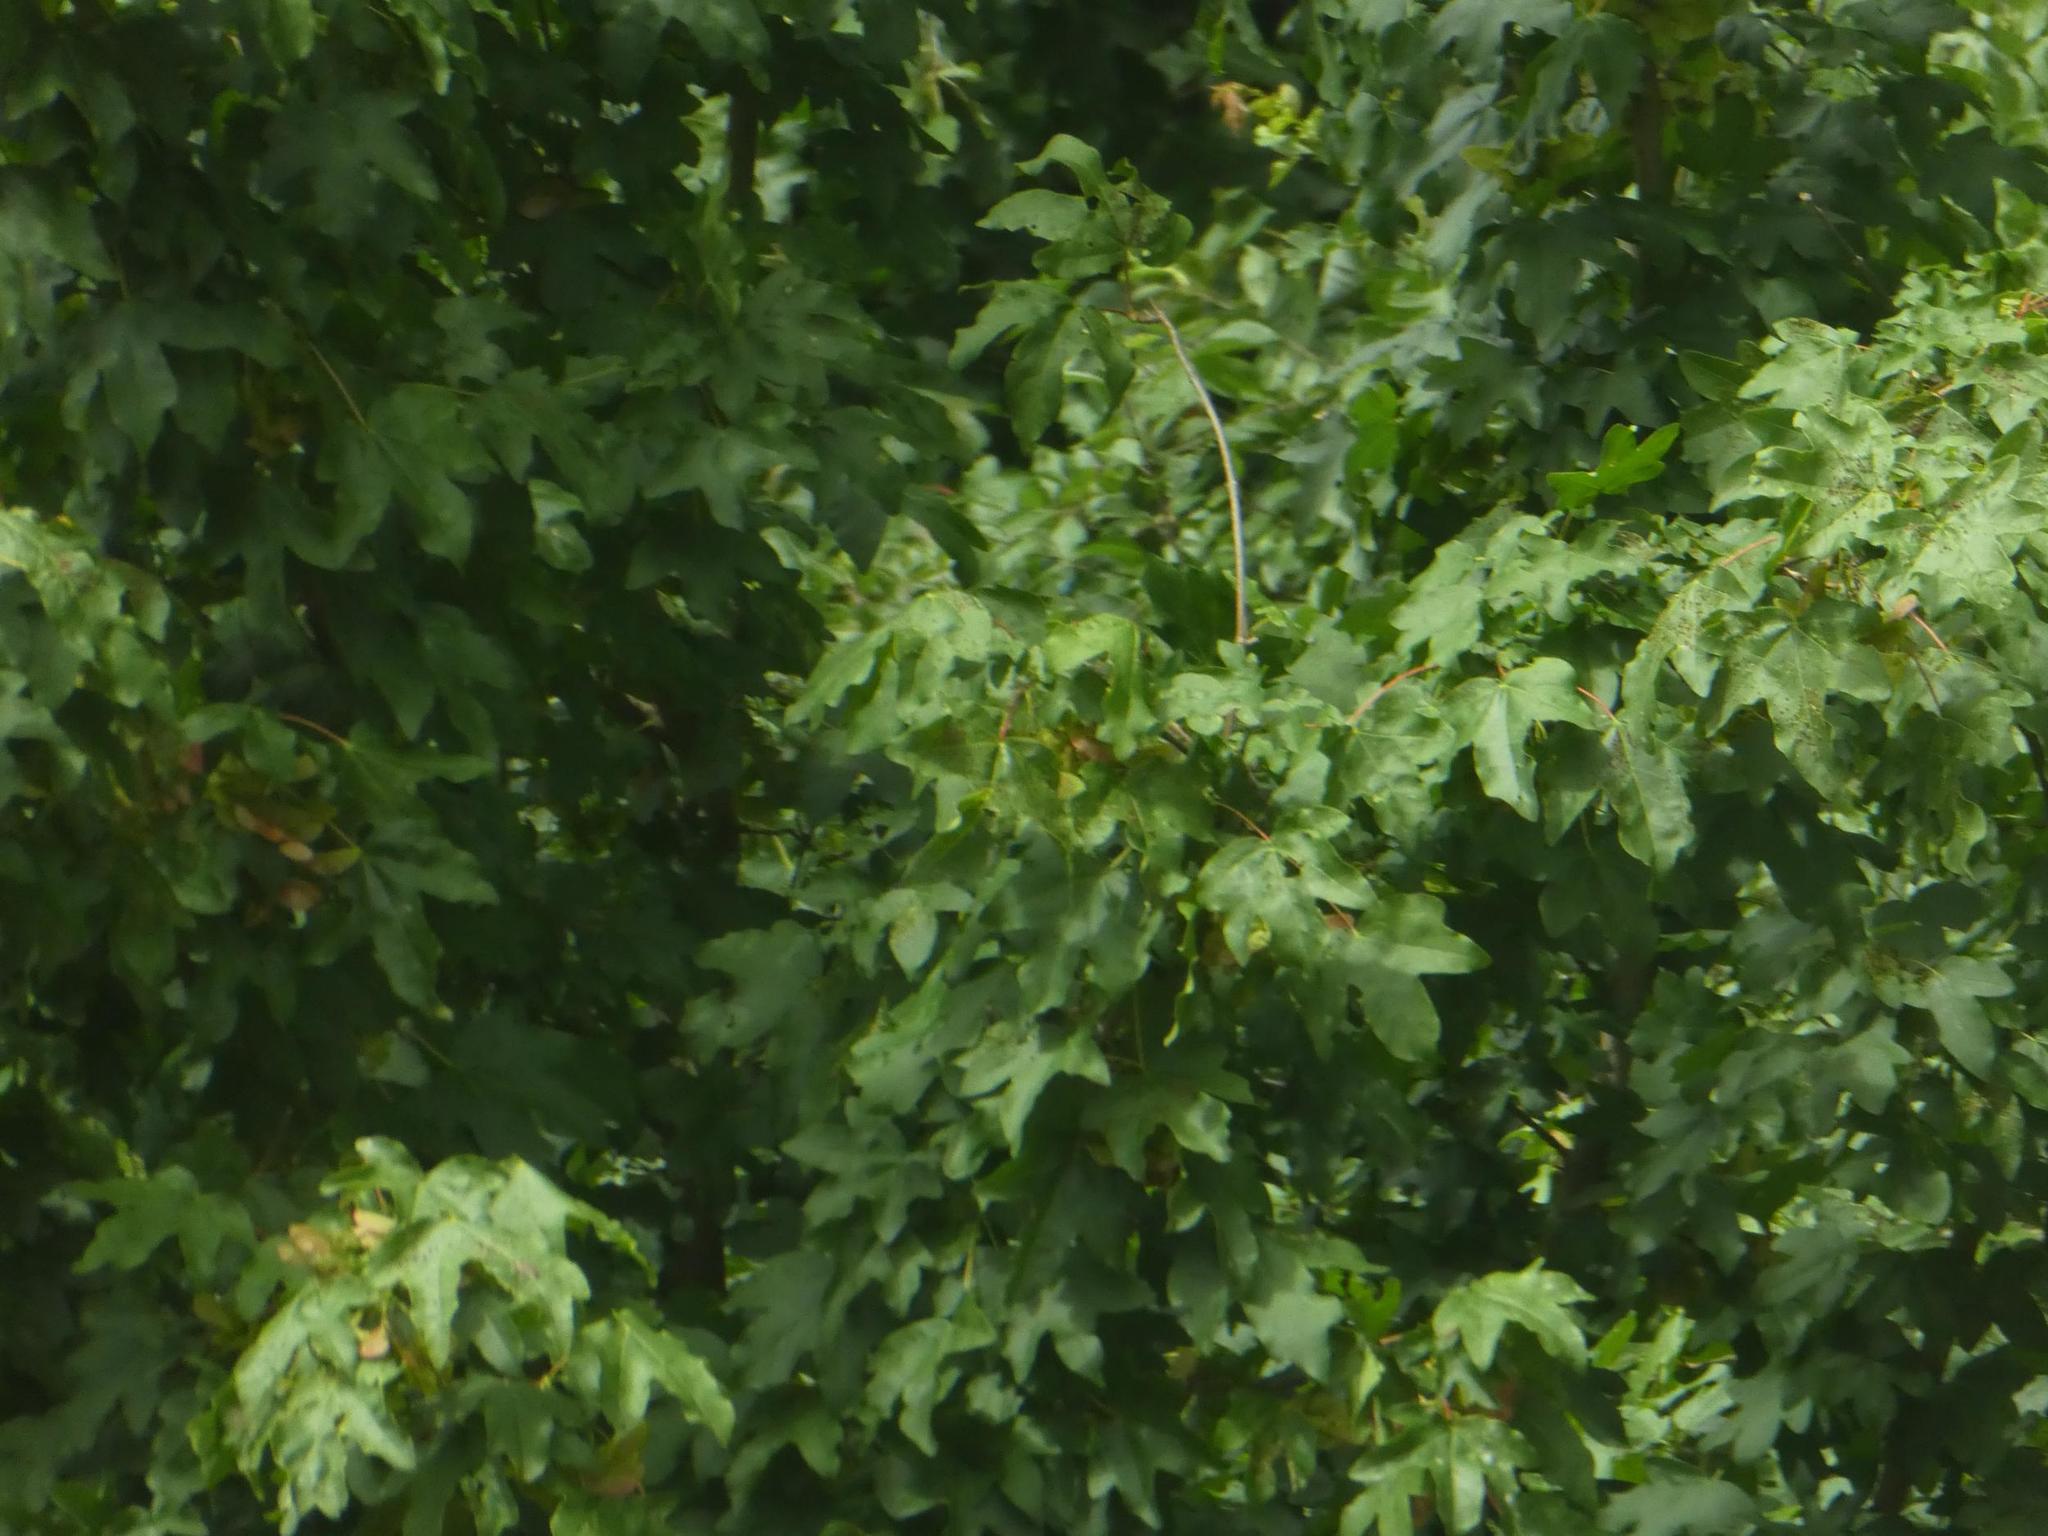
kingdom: Plantae
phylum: Tracheophyta
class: Magnoliopsida
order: Sapindales
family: Sapindaceae
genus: Acer
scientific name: Acer campestre
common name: Field maple
